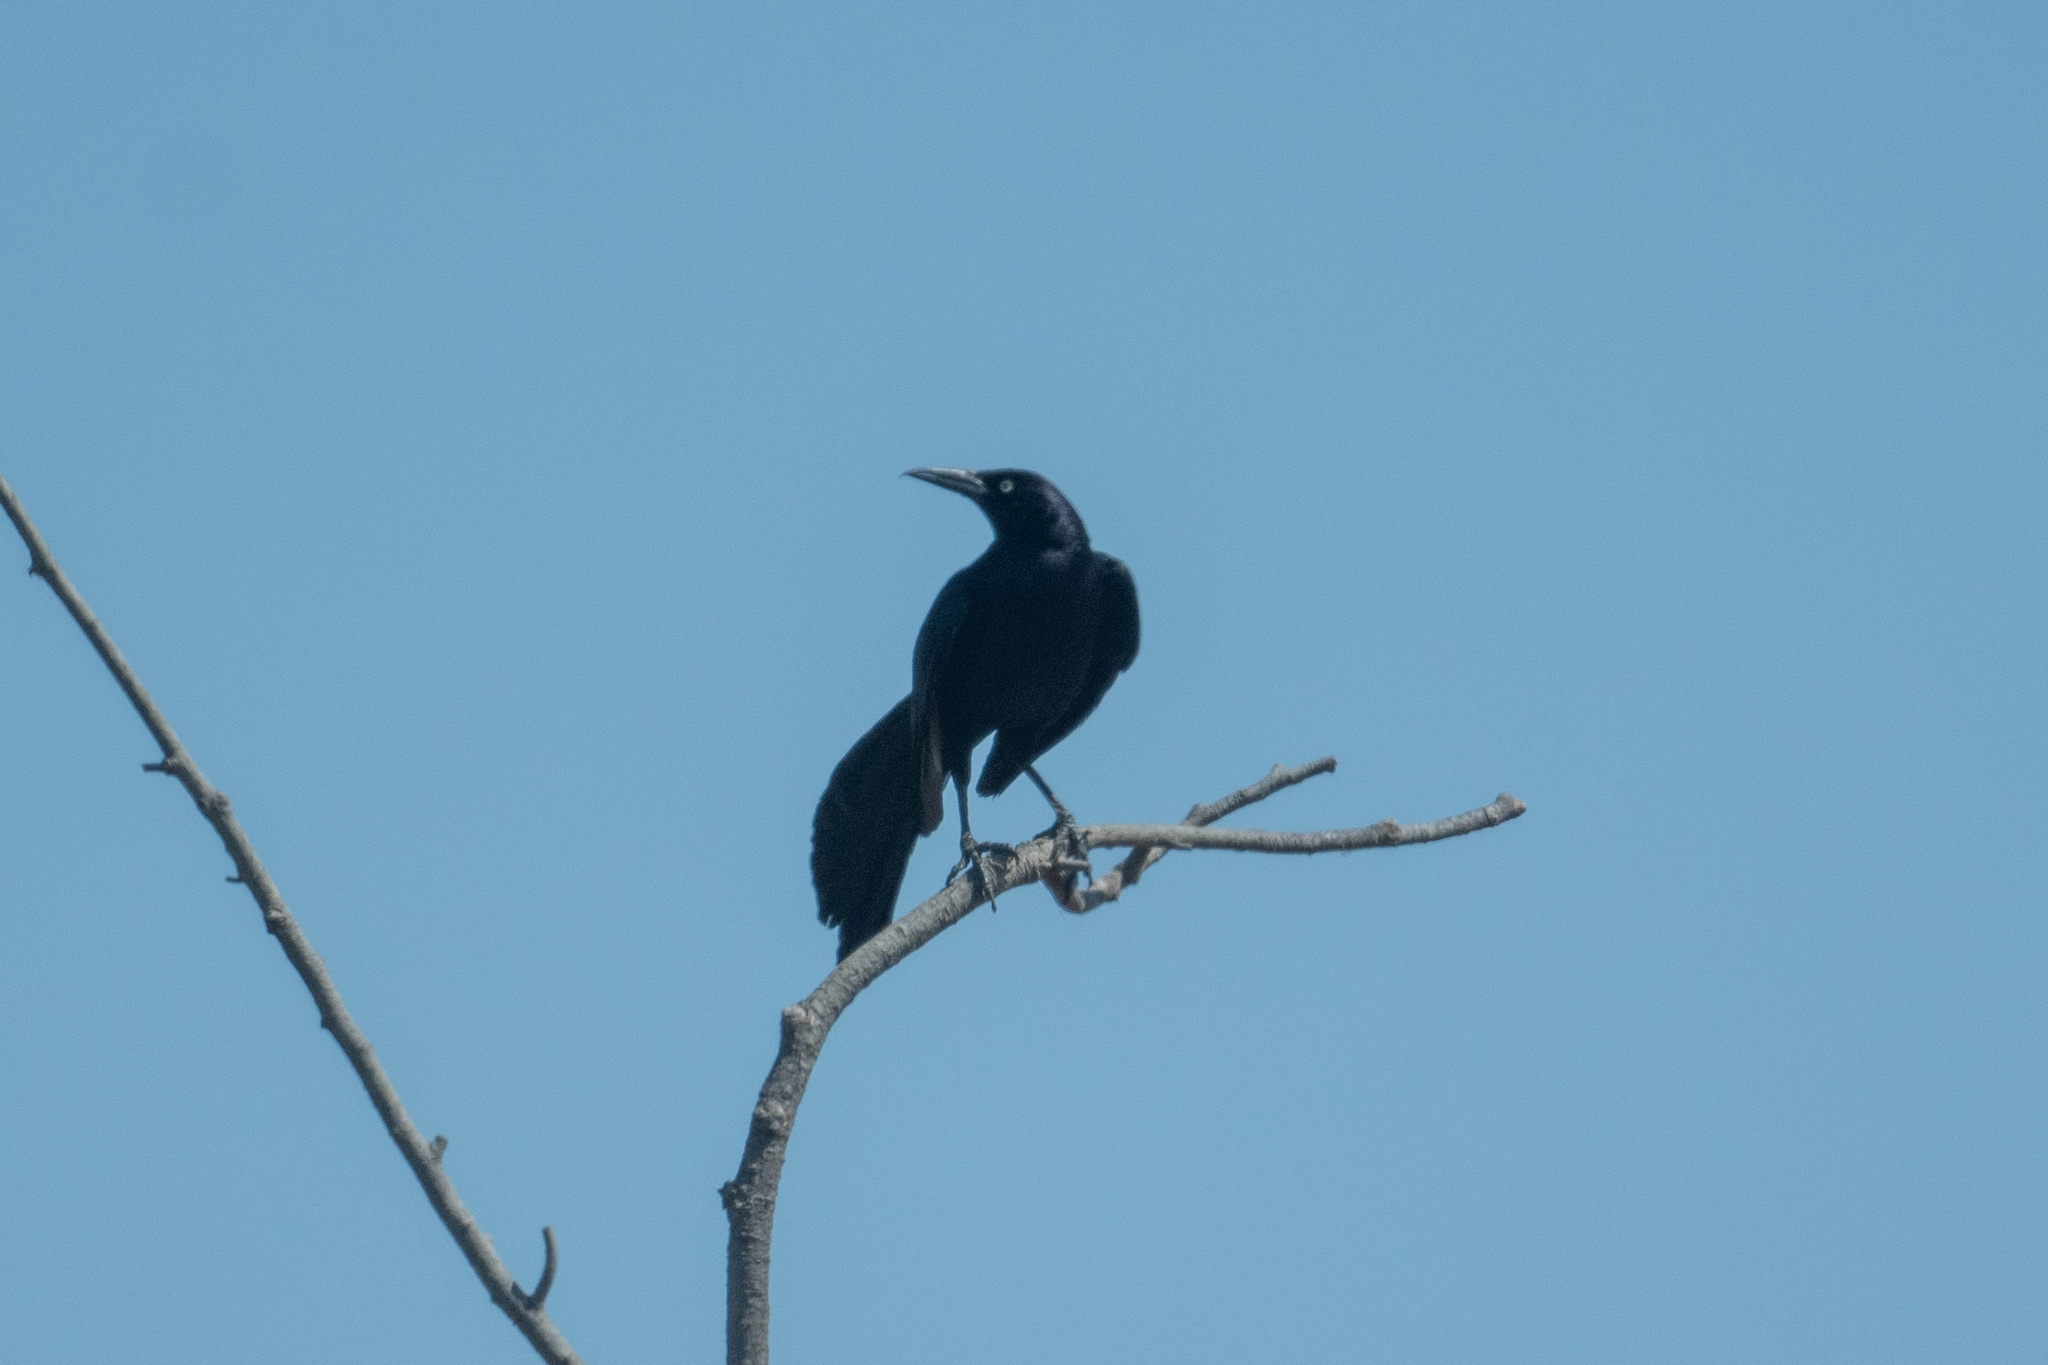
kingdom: Animalia
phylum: Chordata
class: Aves
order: Passeriformes
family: Icteridae
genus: Quiscalus
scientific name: Quiscalus mexicanus
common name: Great-tailed grackle
